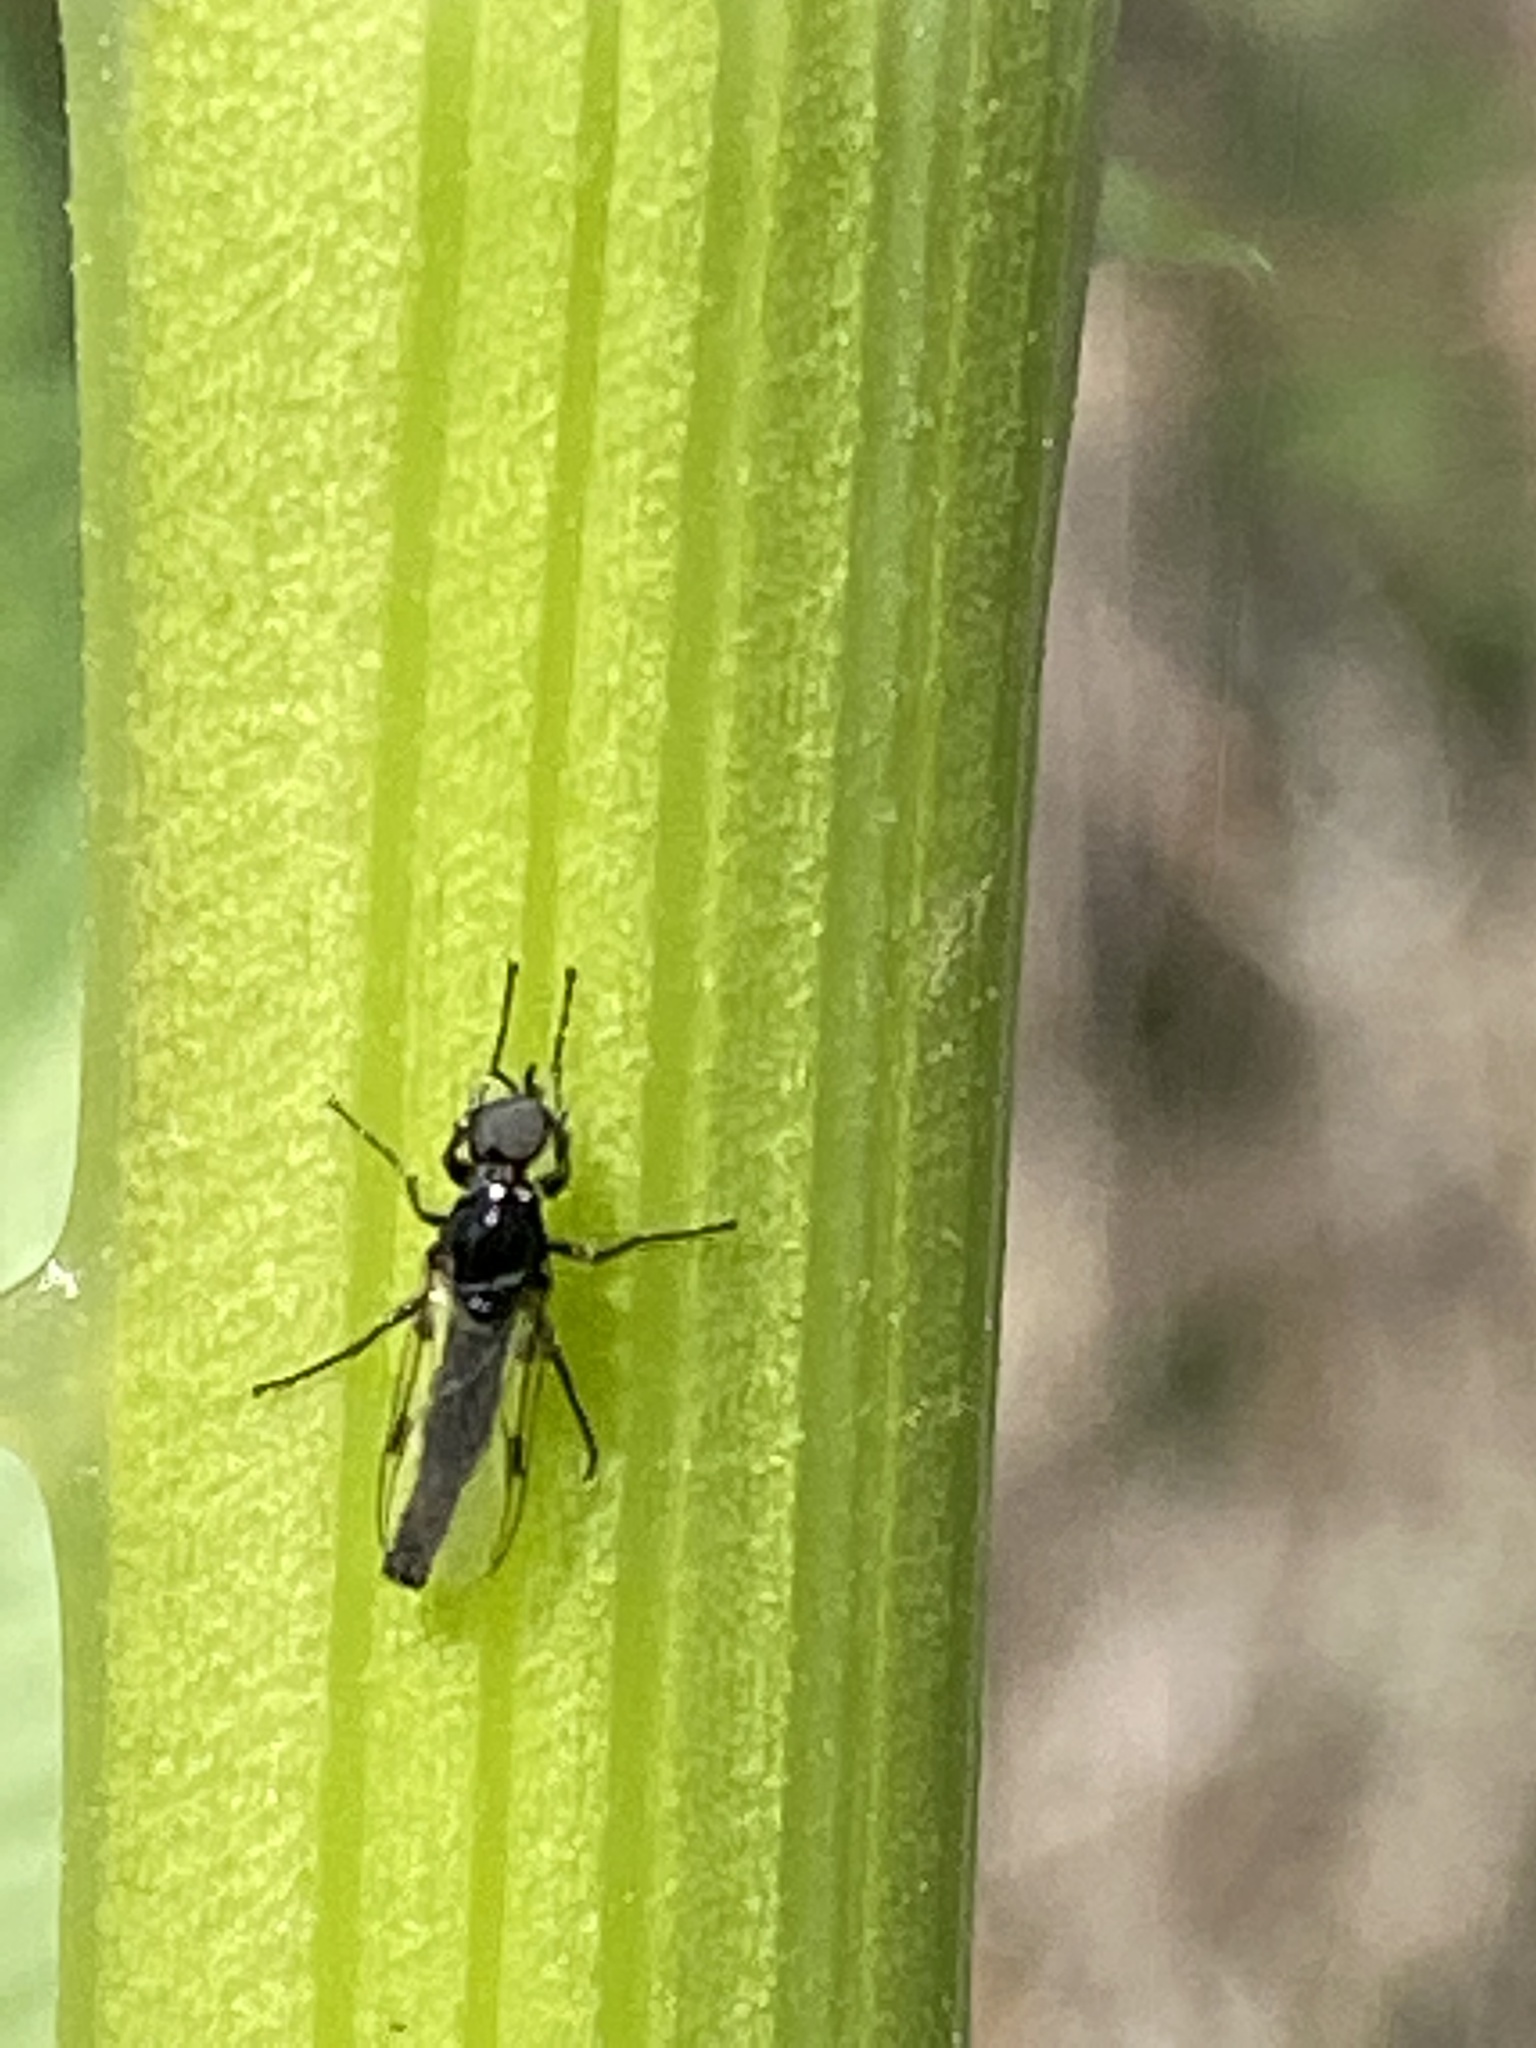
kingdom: Animalia
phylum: Arthropoda
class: Insecta
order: Diptera
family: Bibionidae
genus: Dilophus
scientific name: Dilophus
